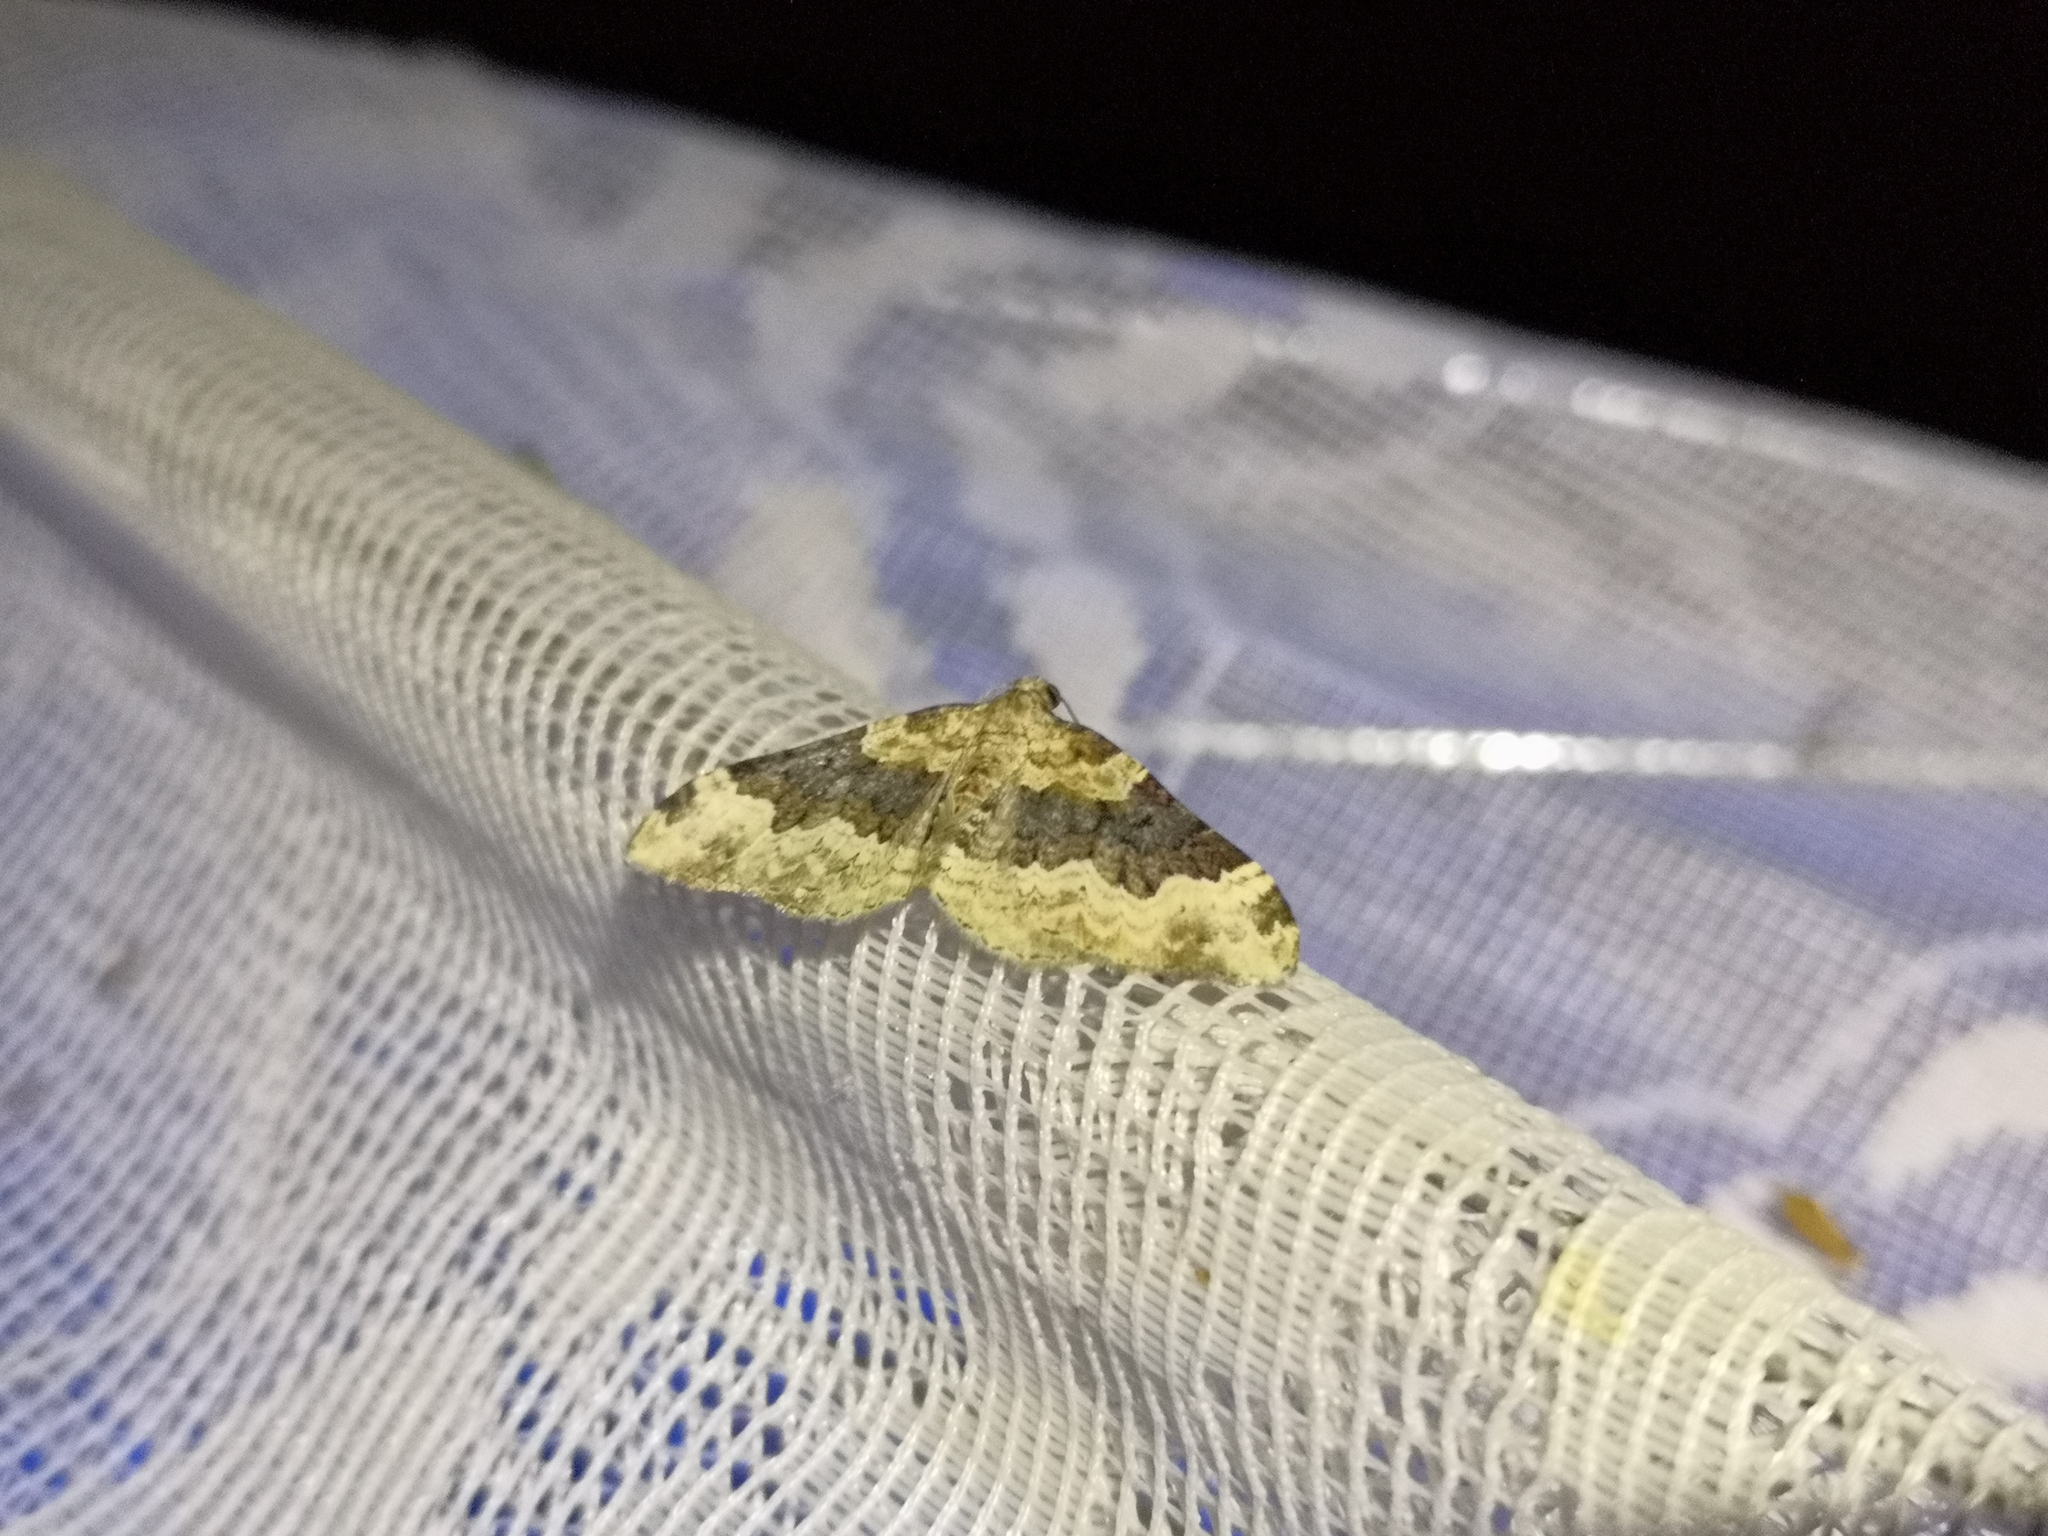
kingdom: Animalia
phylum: Arthropoda
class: Insecta
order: Lepidoptera
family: Geometridae
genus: Epirrhoe
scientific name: Epirrhoe galiata
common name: Galium carpet
